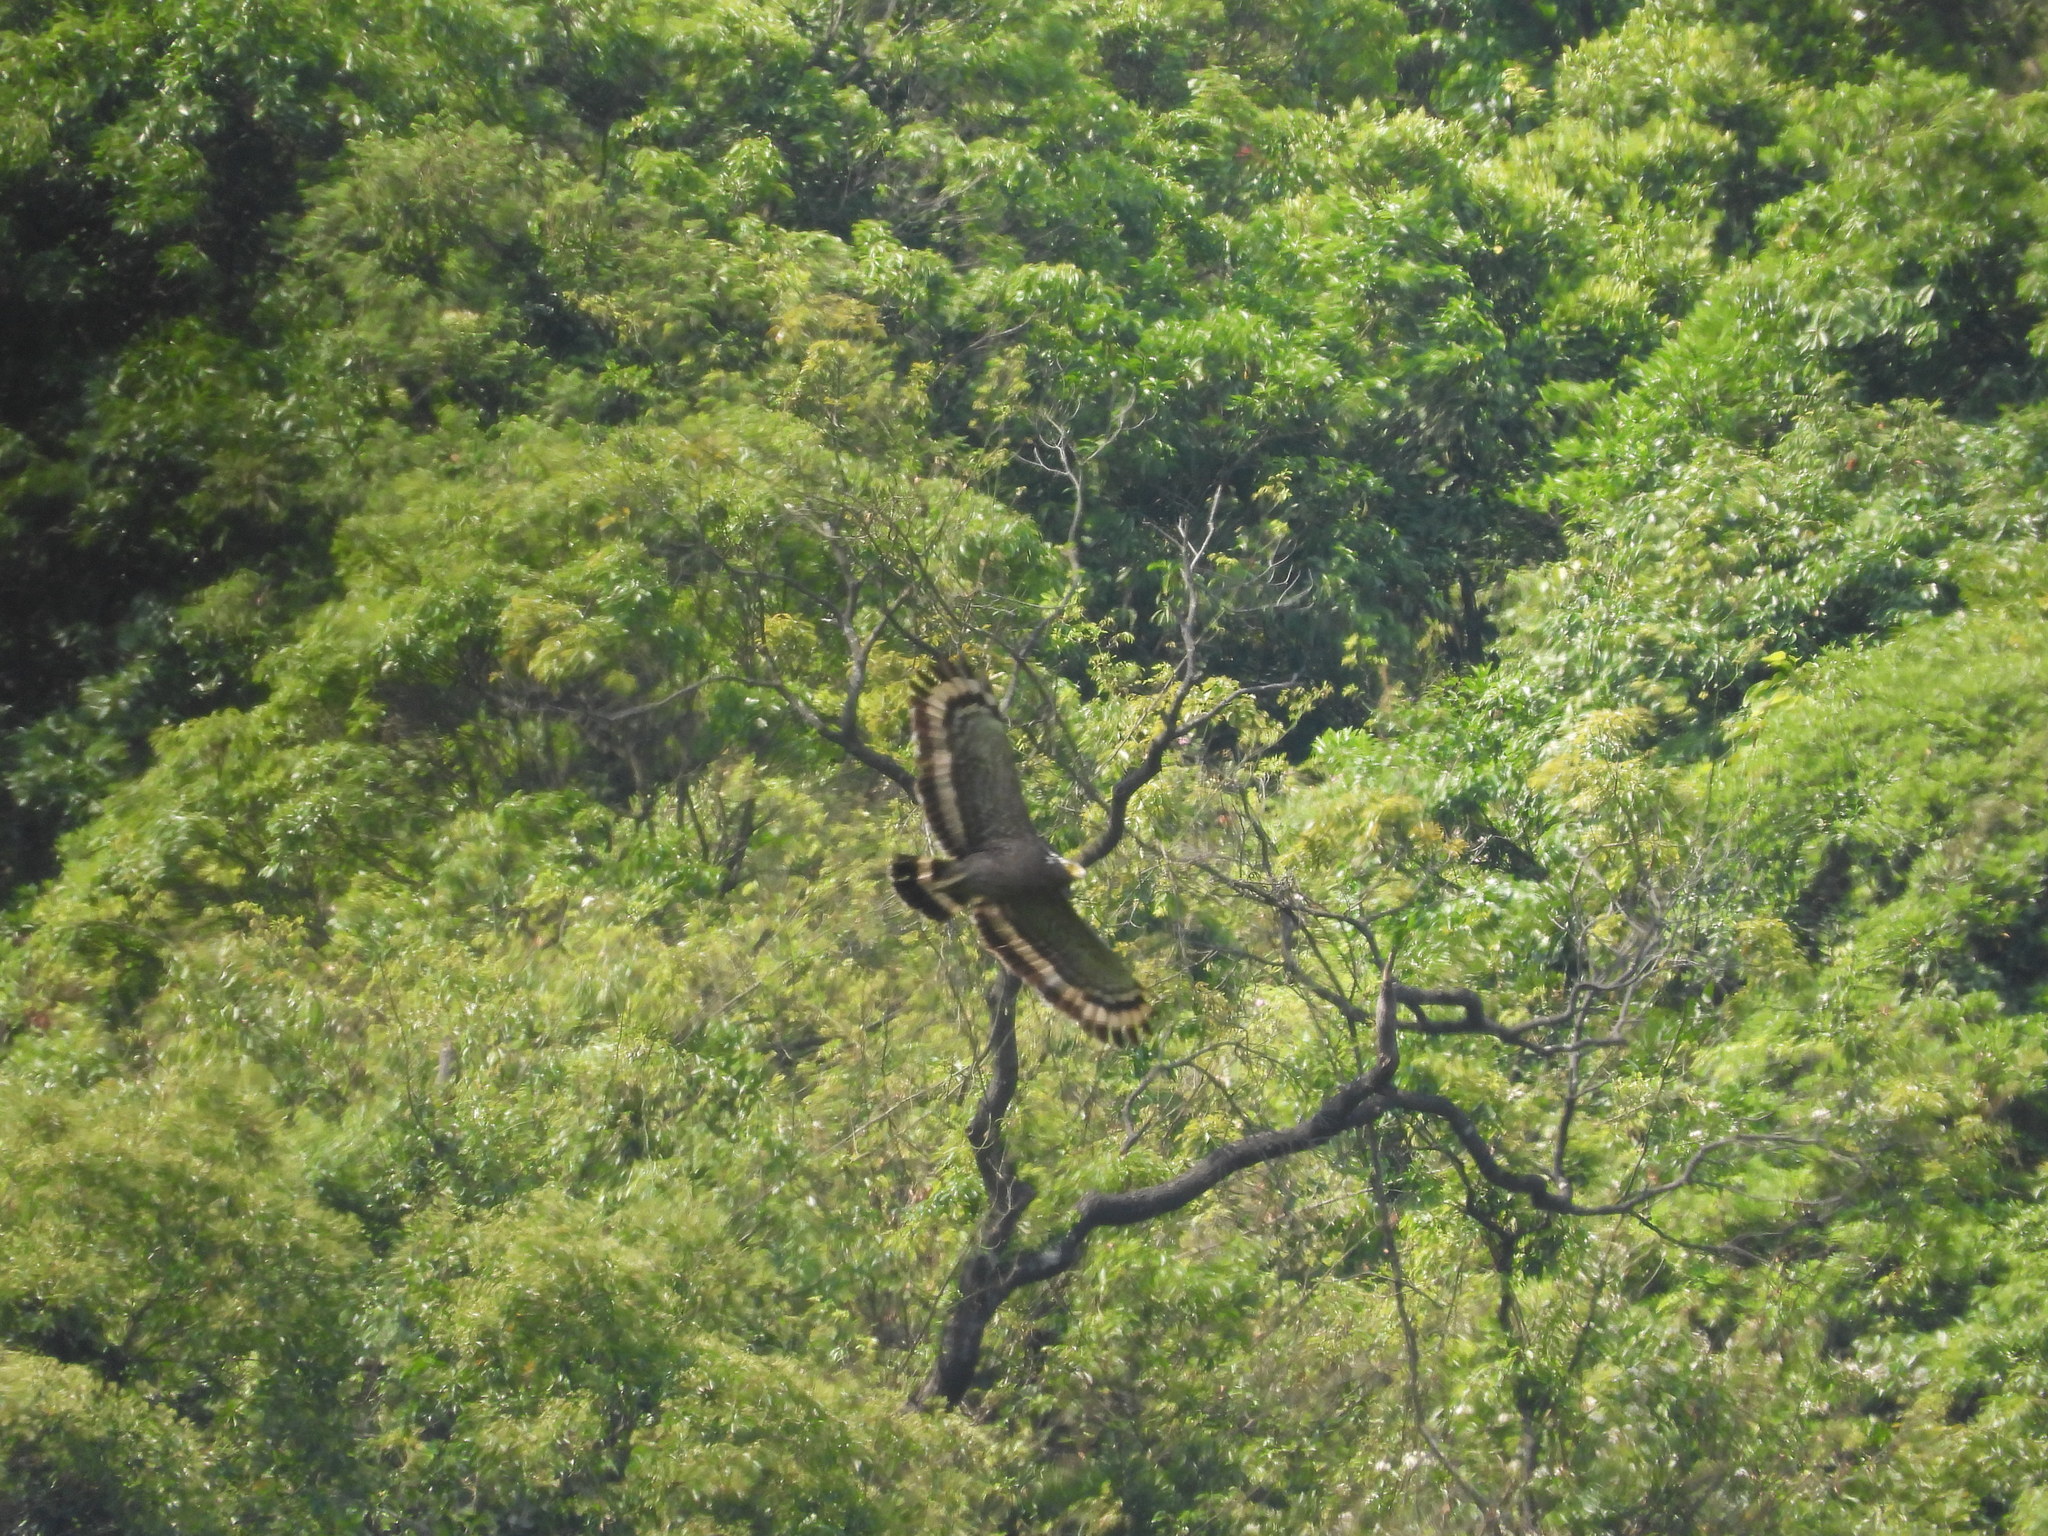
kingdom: Animalia
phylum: Chordata
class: Aves
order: Accipitriformes
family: Accipitridae
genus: Spilornis
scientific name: Spilornis cheela
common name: Crested serpent eagle
